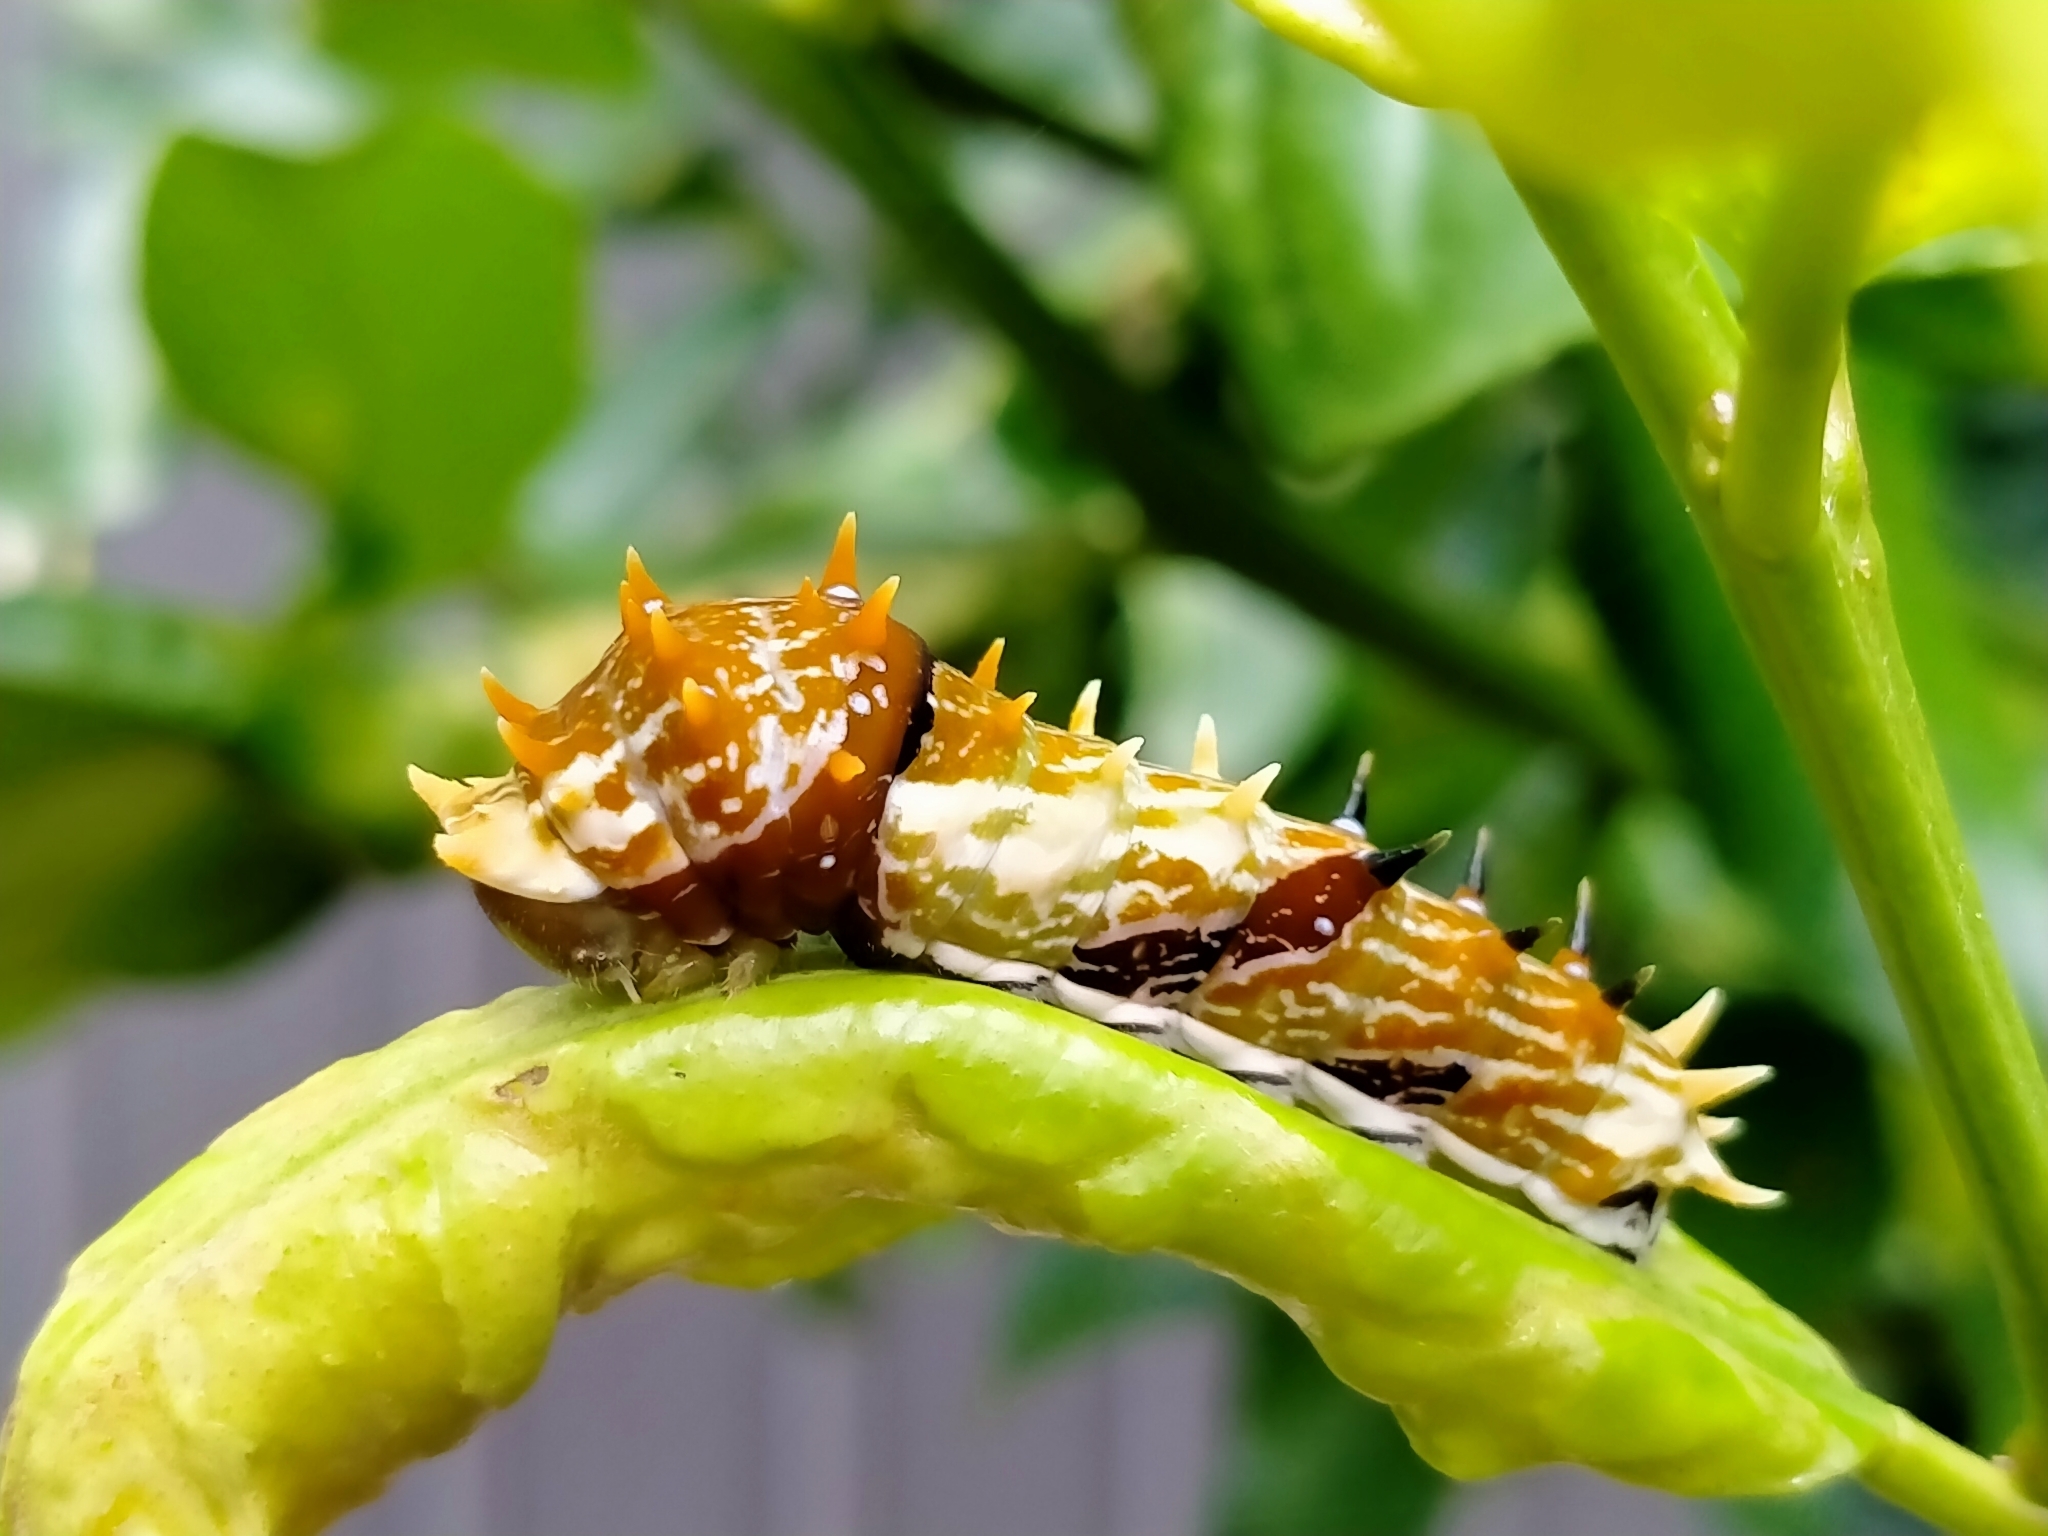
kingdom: Animalia
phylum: Arthropoda
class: Insecta
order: Lepidoptera
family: Papilionidae
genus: Papilio
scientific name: Papilio aegeus
